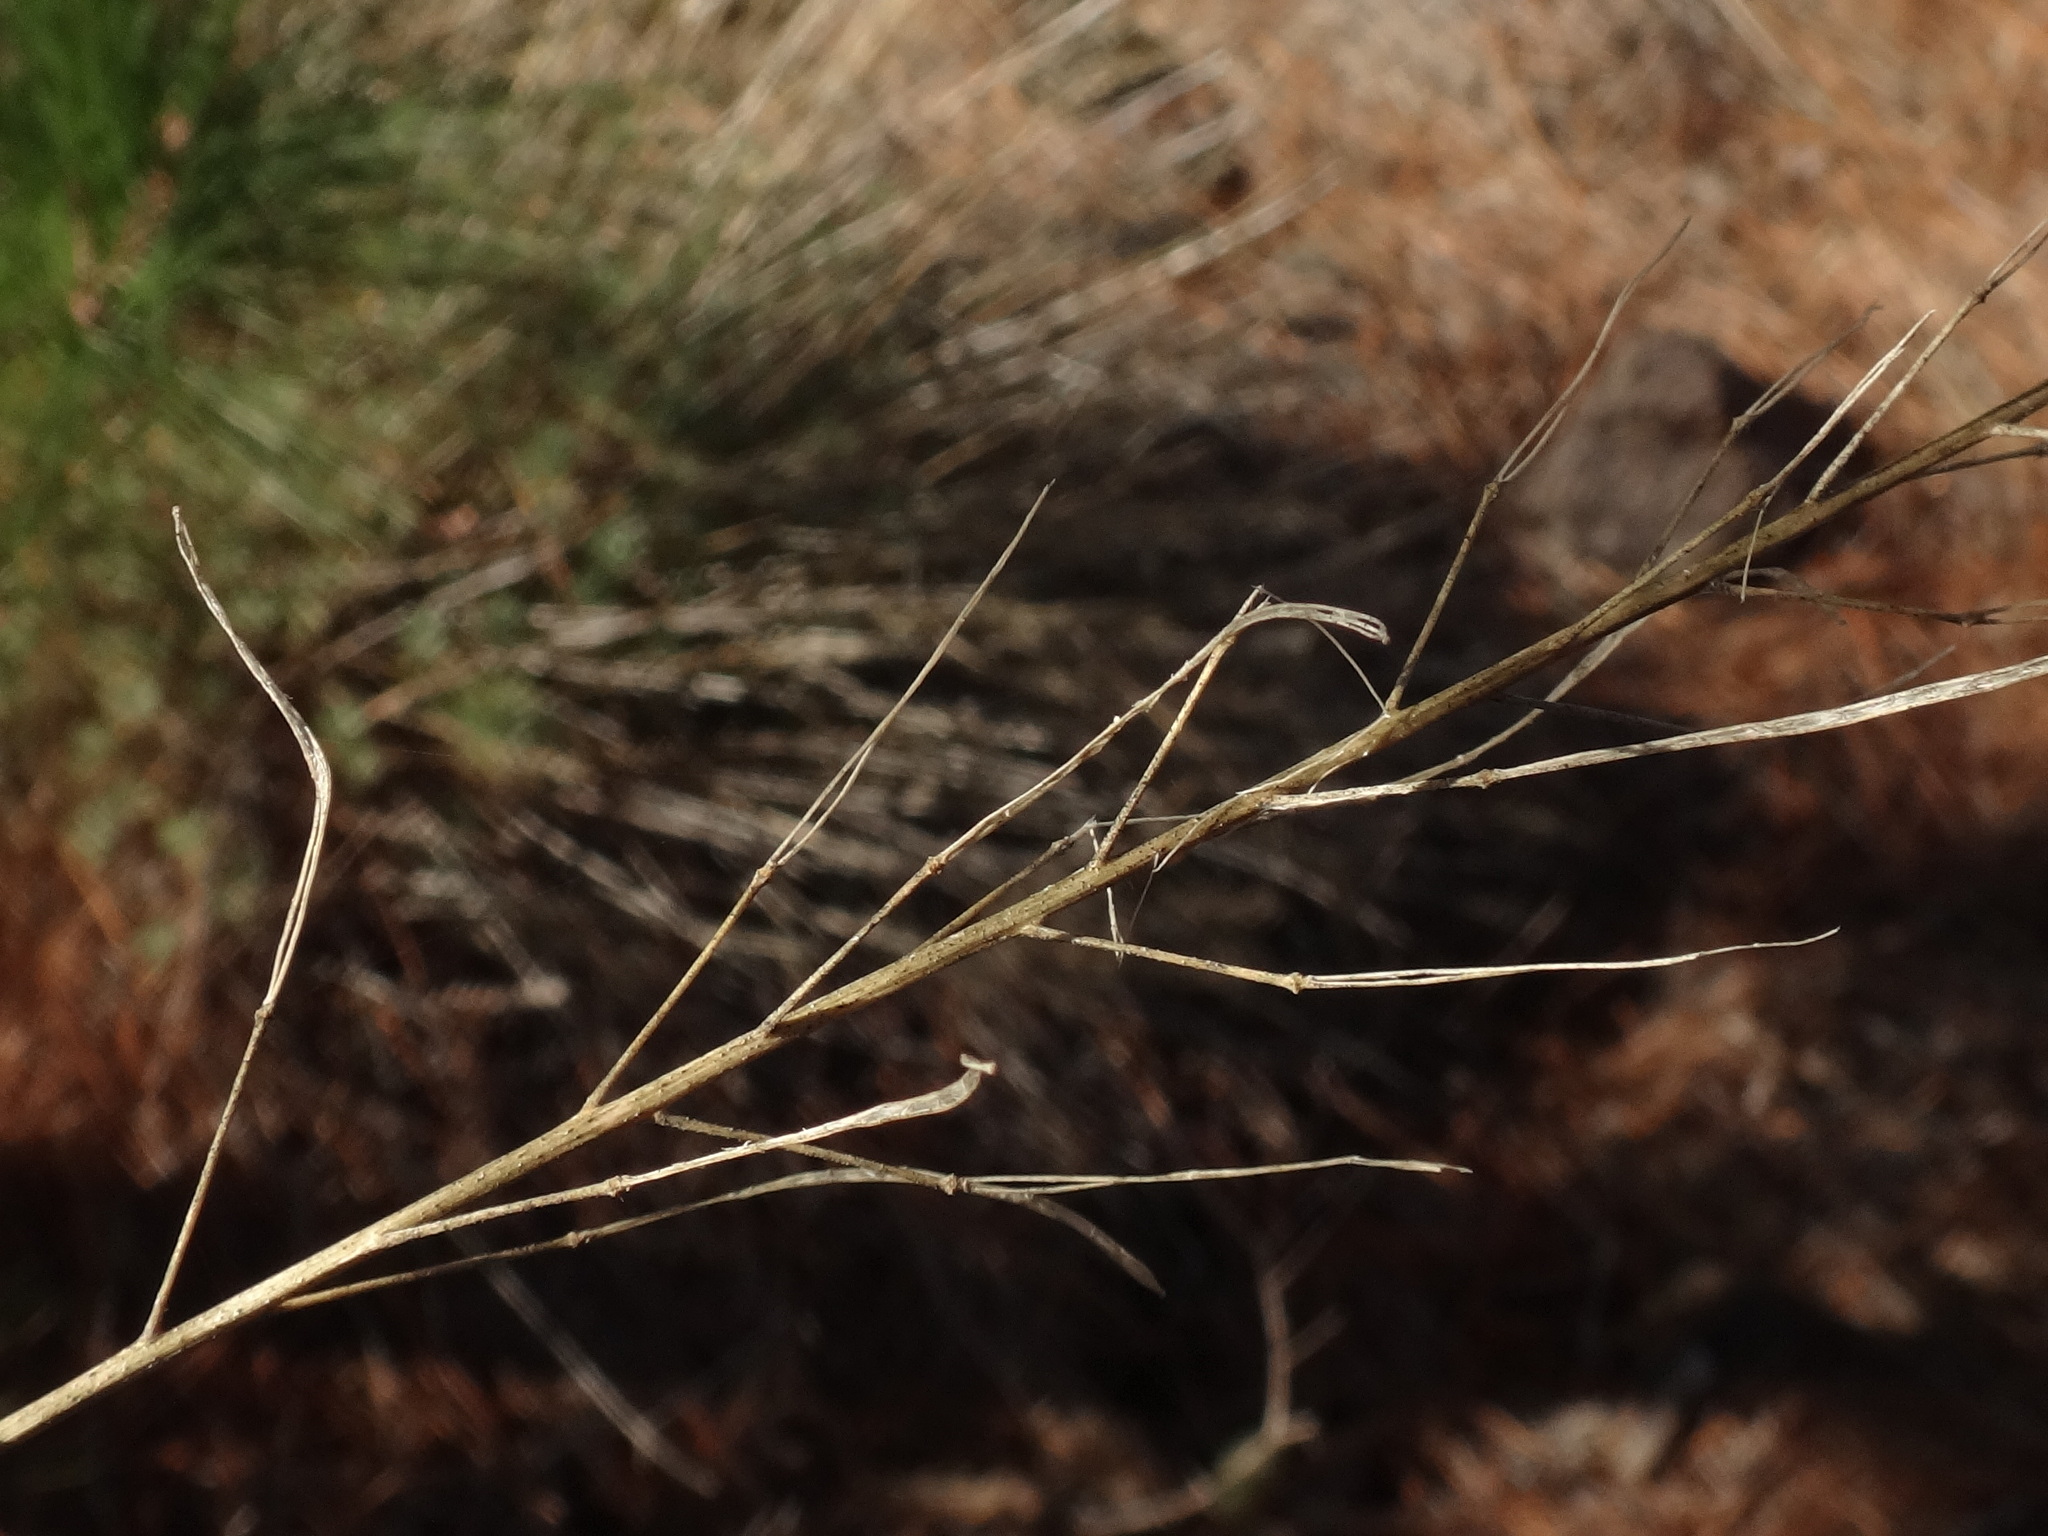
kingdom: Plantae
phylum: Tracheophyta
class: Magnoliopsida
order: Brassicales
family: Brassicaceae
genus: Descurainia
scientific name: Descurainia gilva
